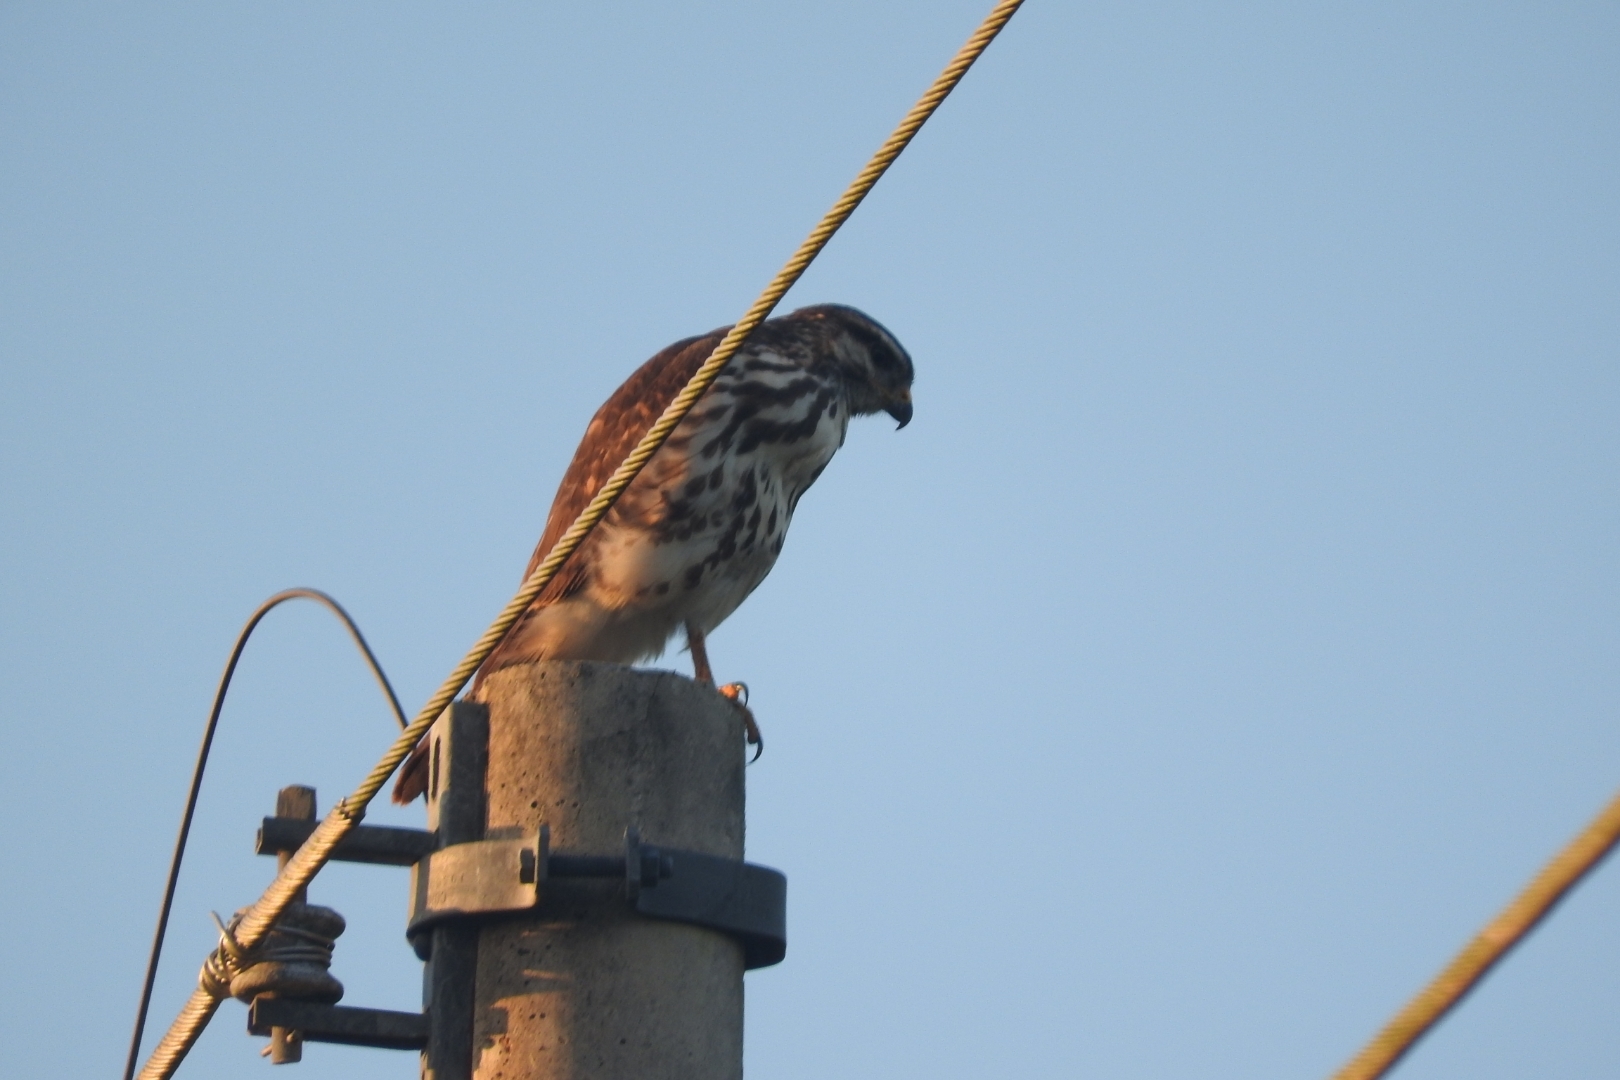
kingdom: Animalia
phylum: Chordata
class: Aves
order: Accipitriformes
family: Accipitridae
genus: Buteo
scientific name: Buteo nitidus
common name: Grey-lined hawk
